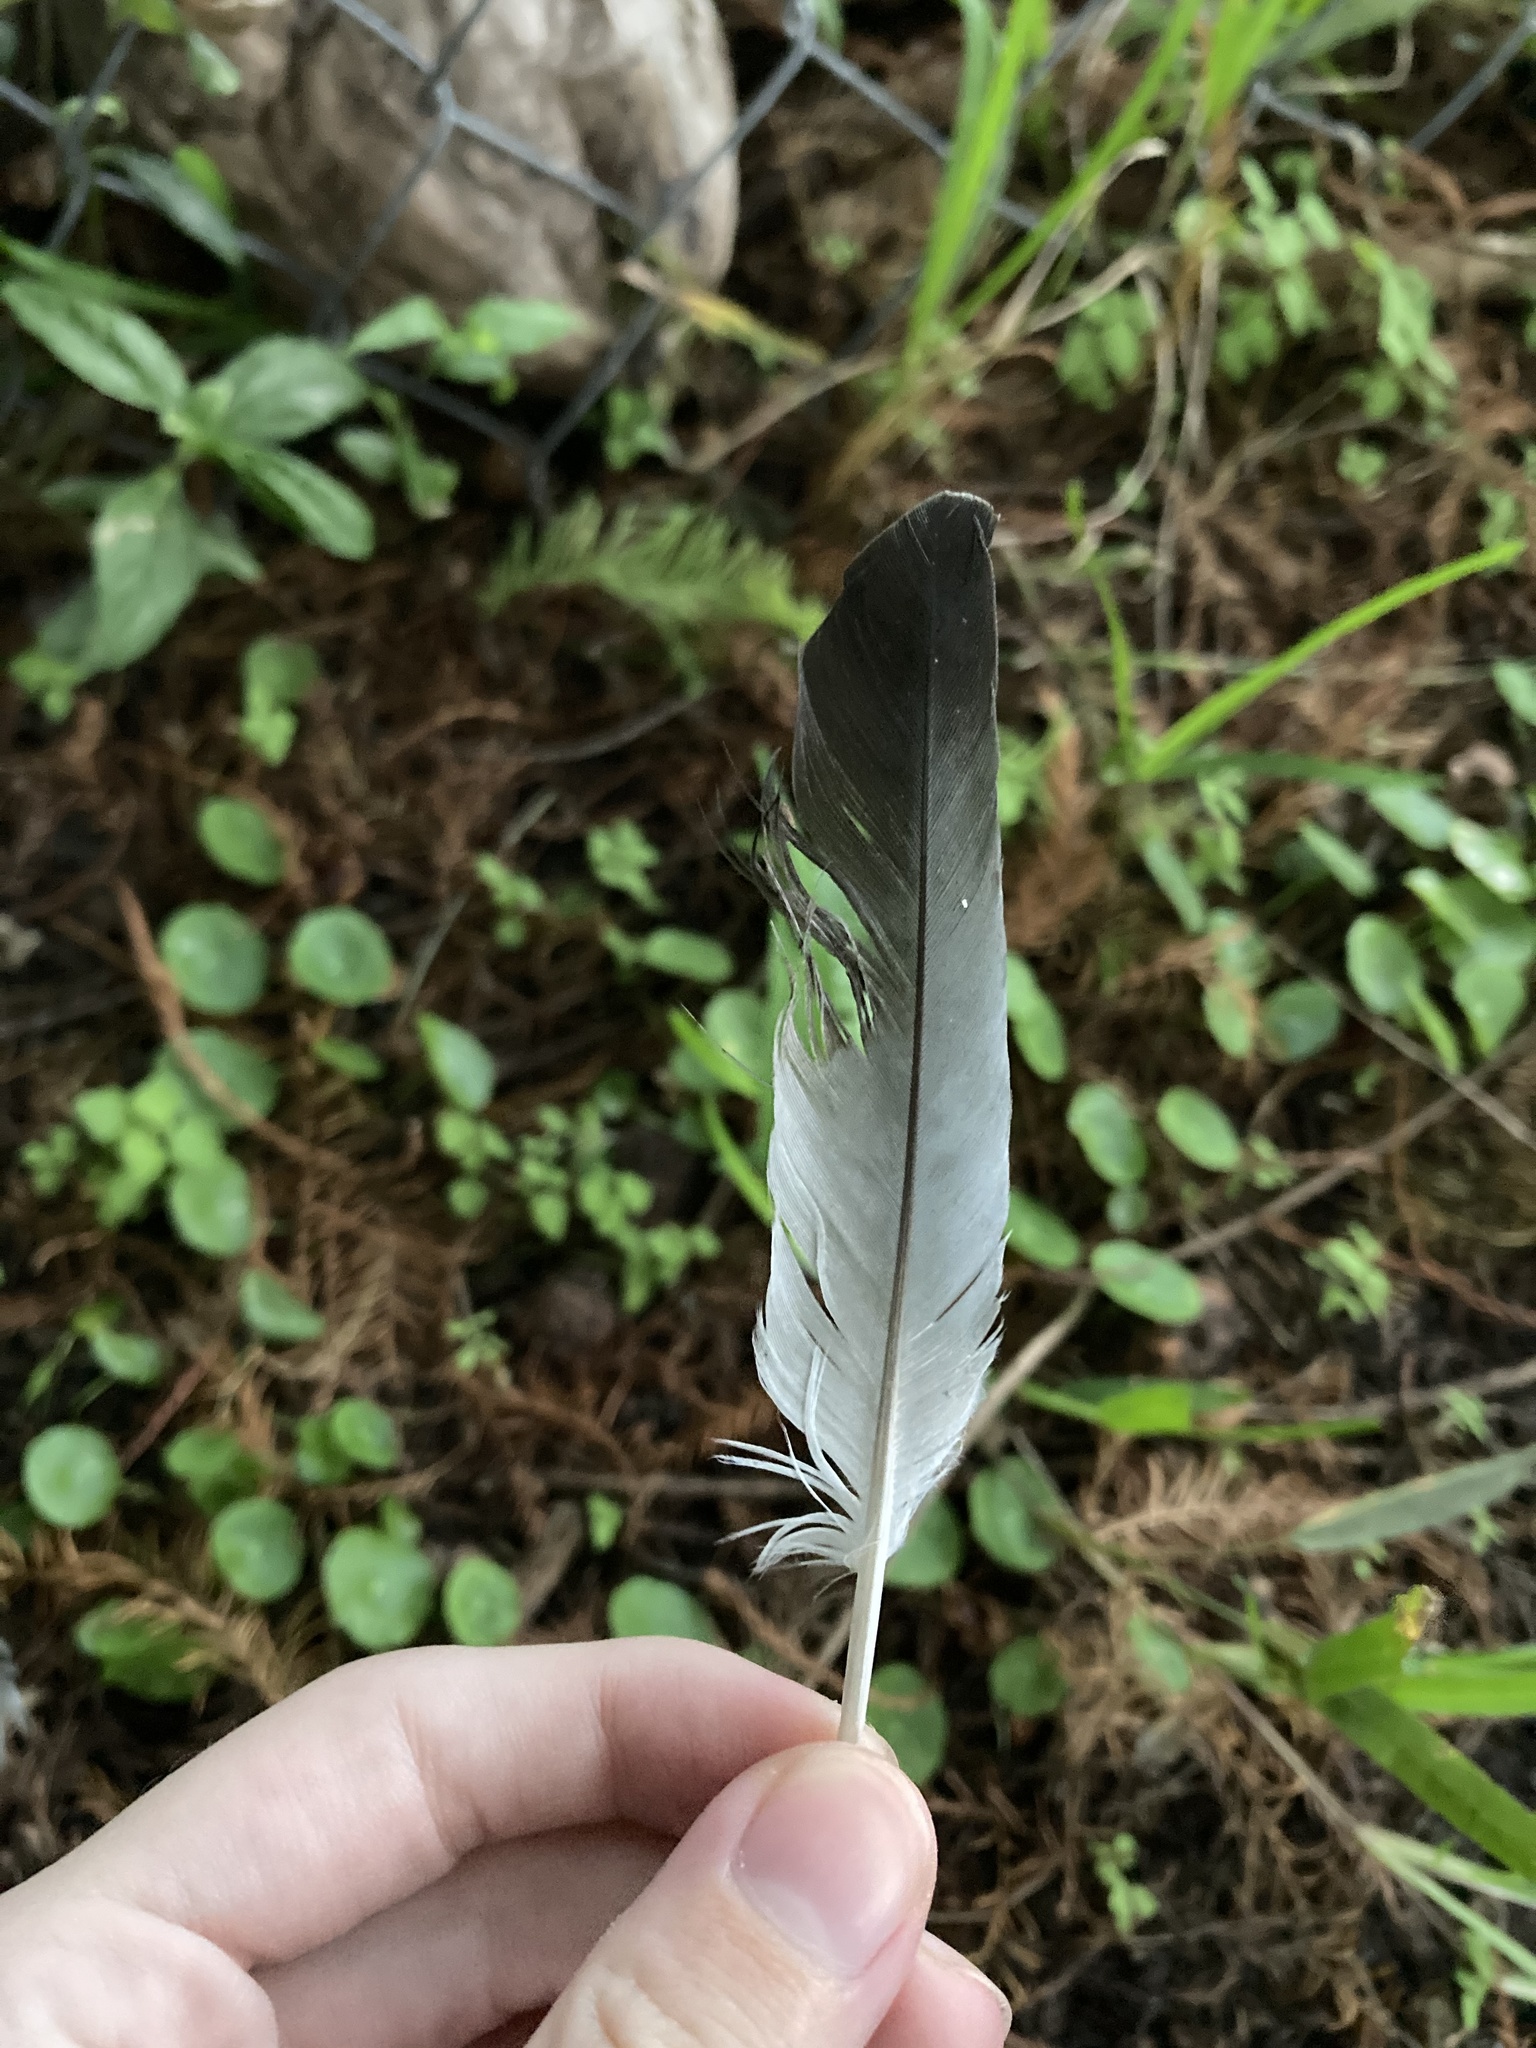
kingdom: Animalia
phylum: Chordata
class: Aves
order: Columbiformes
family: Columbidae
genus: Columba
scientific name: Columba livia
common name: Rock pigeon
